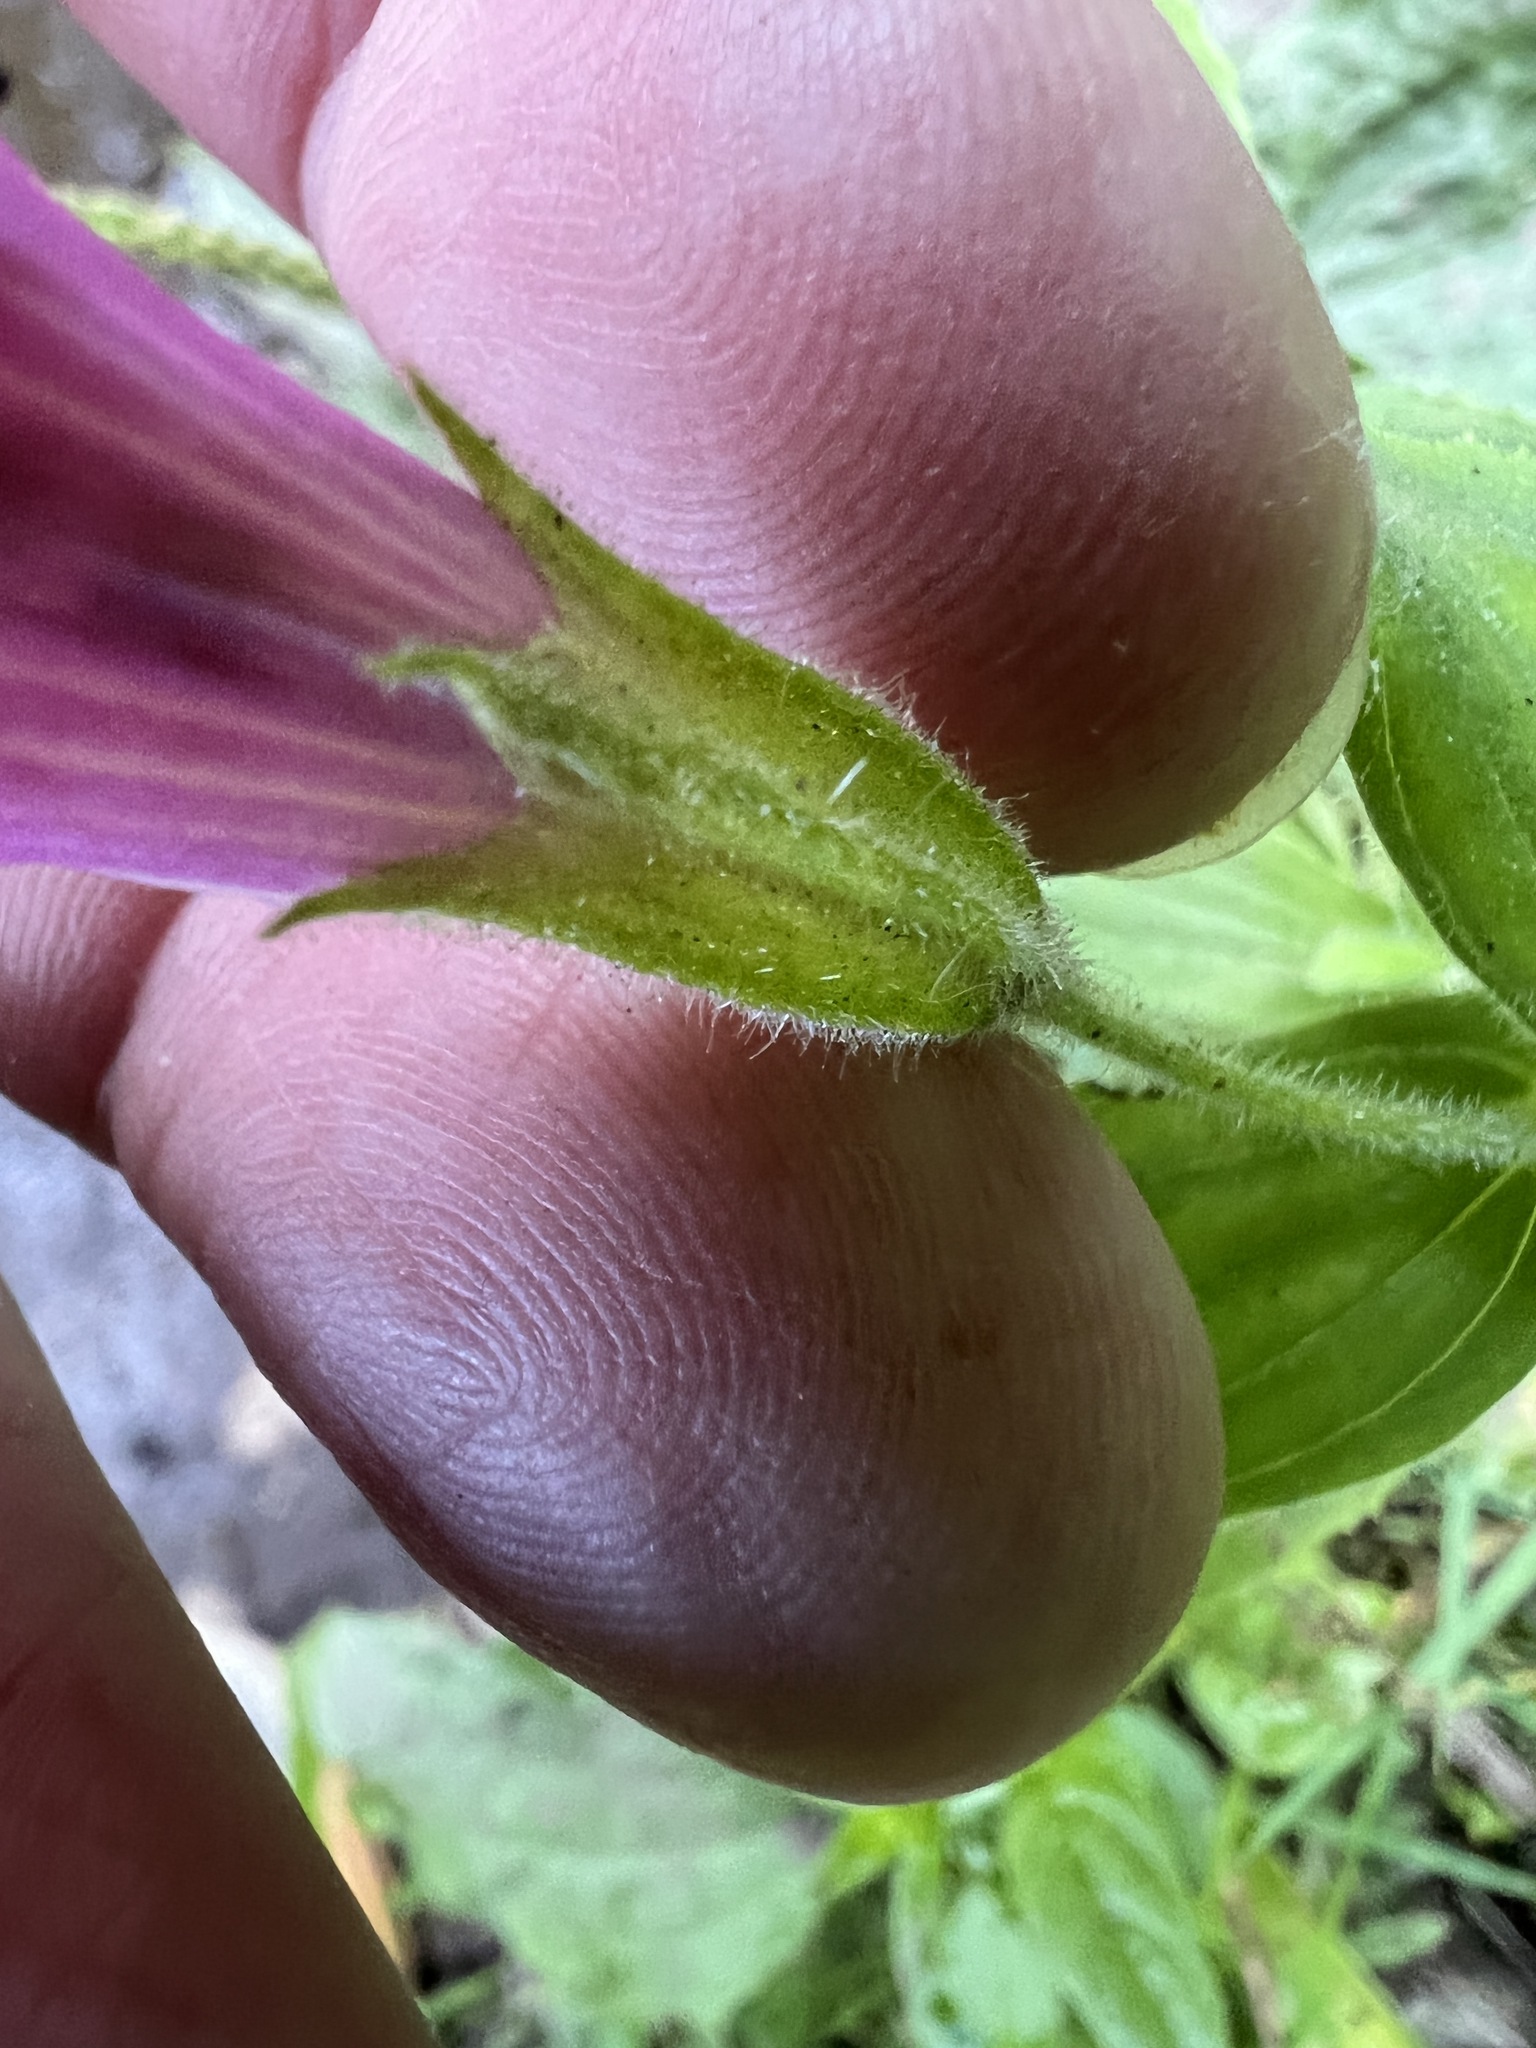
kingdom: Plantae
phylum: Tracheophyta
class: Magnoliopsida
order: Lamiales
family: Phrymaceae
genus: Erythranthe
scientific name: Erythranthe lewisii
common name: Lewis's monkey-flower
